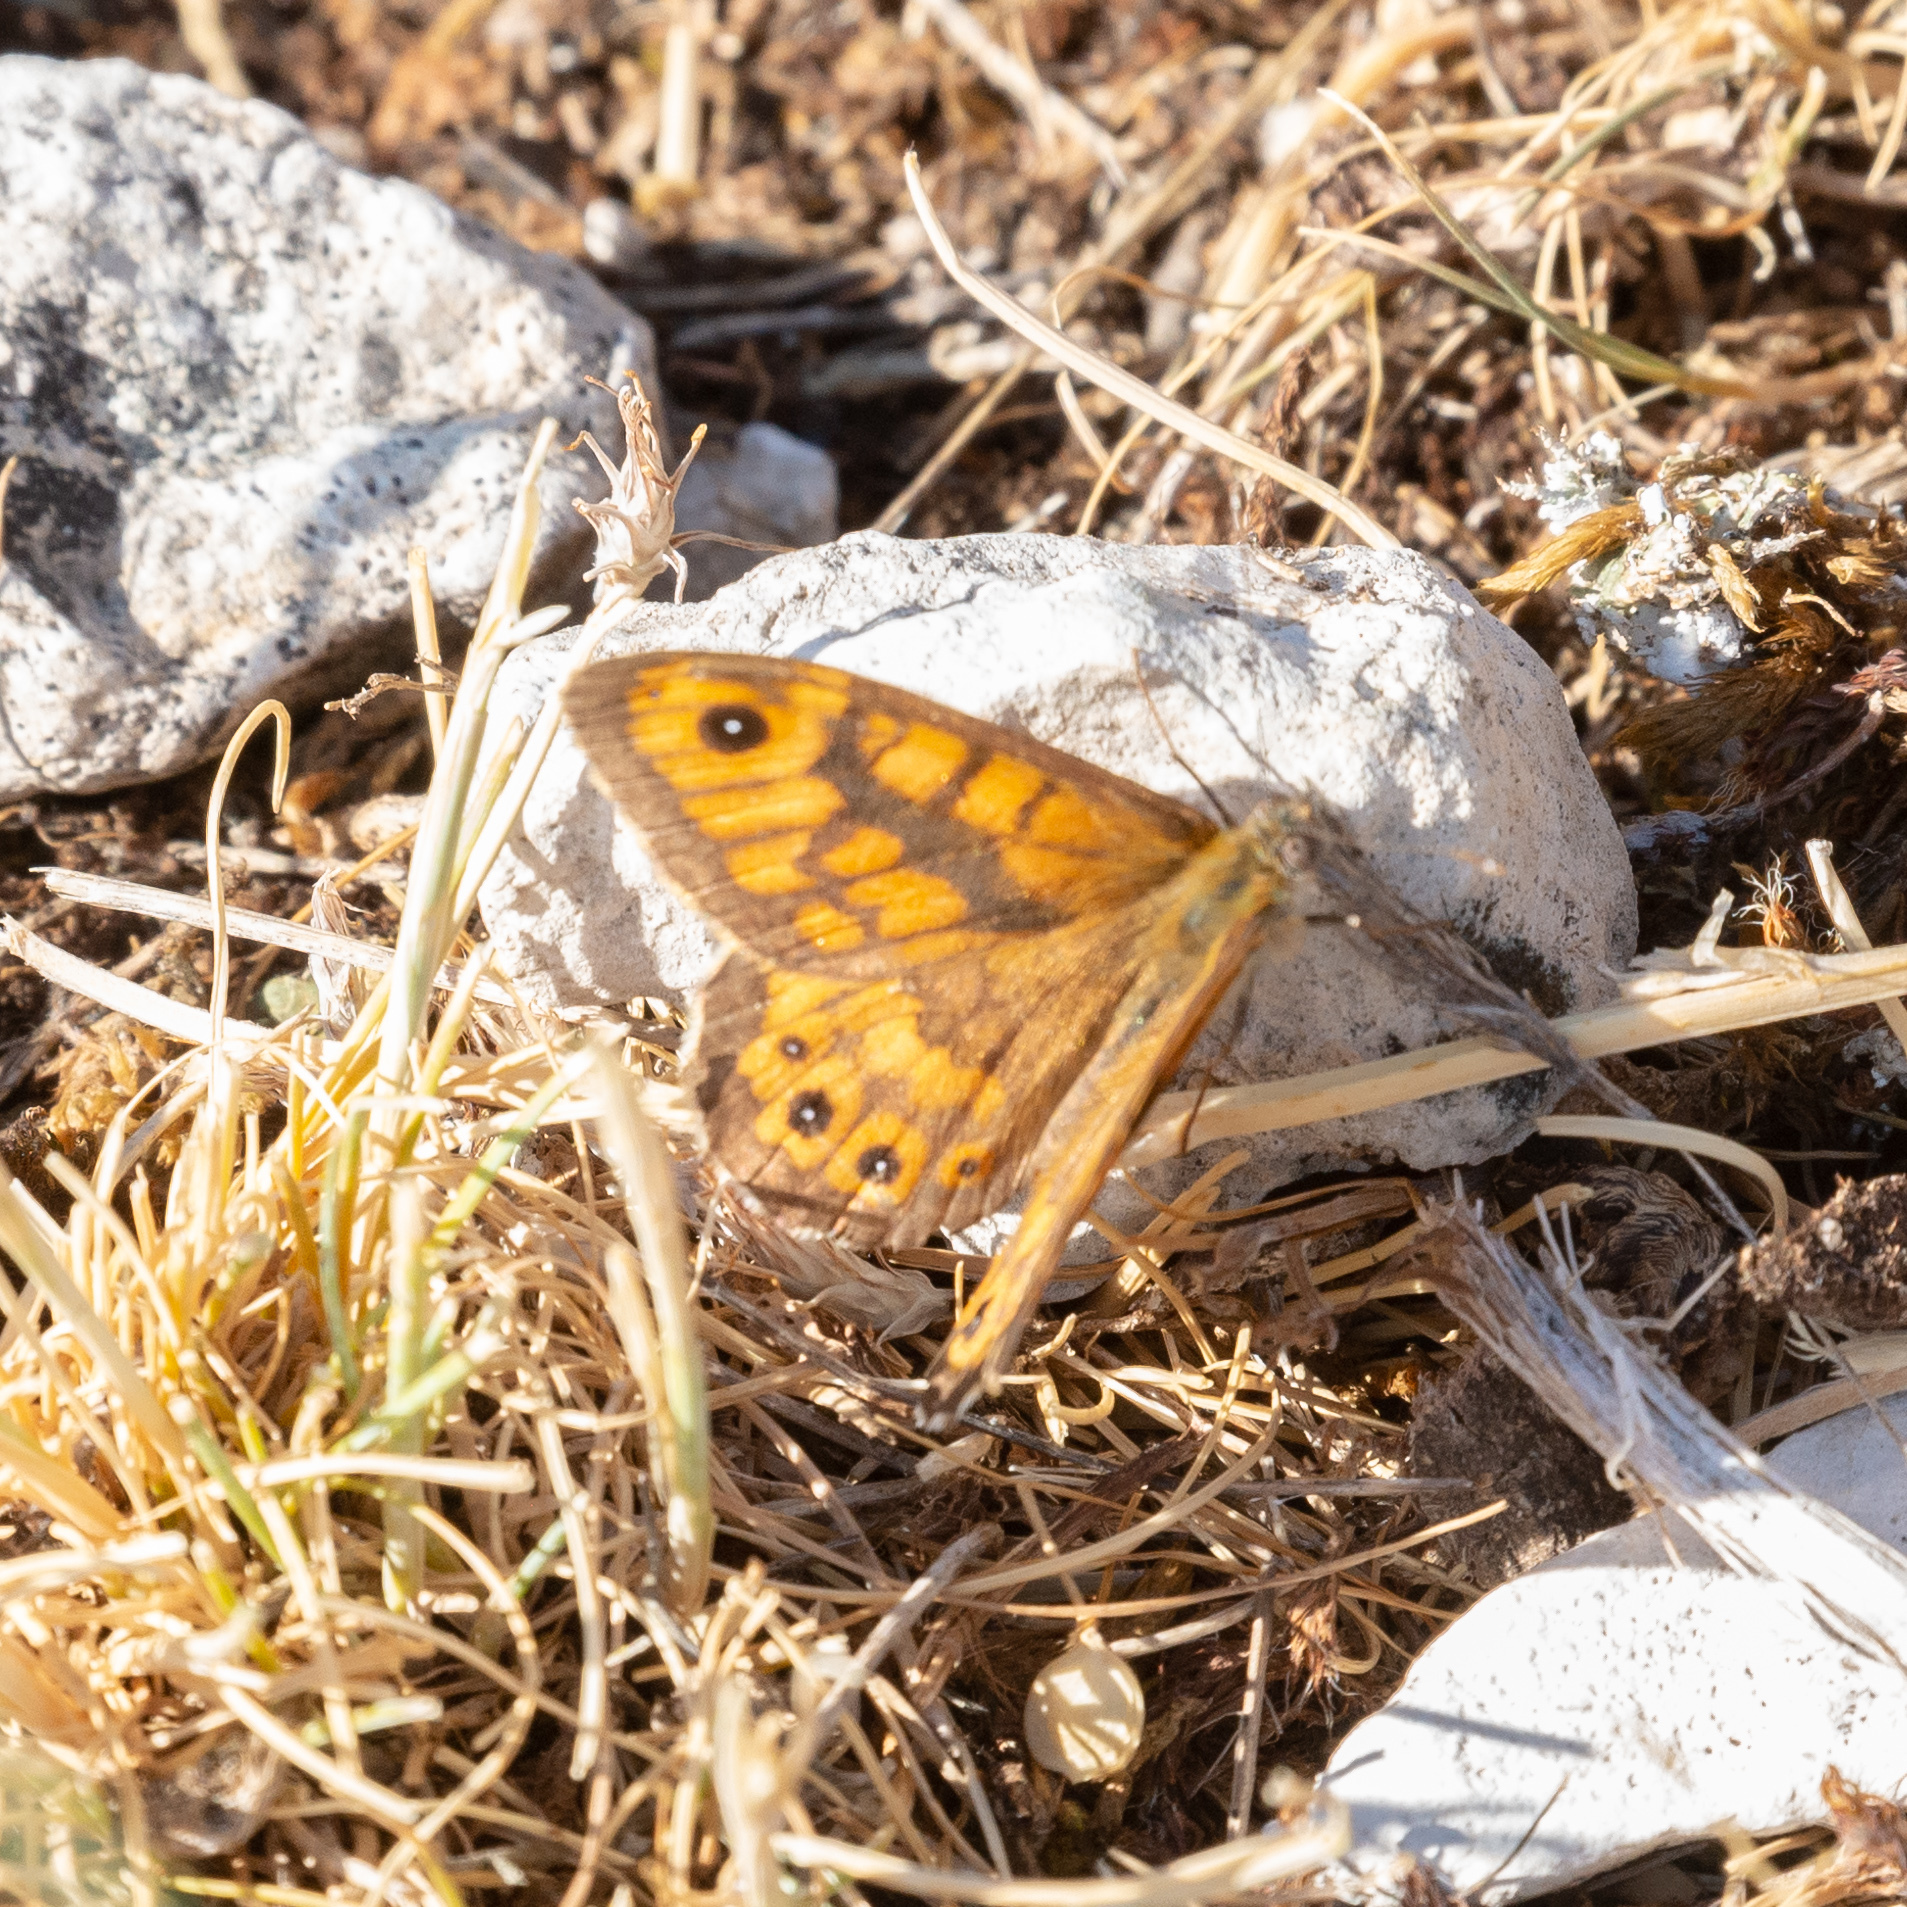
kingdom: Animalia
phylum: Arthropoda
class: Insecta
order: Lepidoptera
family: Nymphalidae
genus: Pararge
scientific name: Pararge Lasiommata megera
